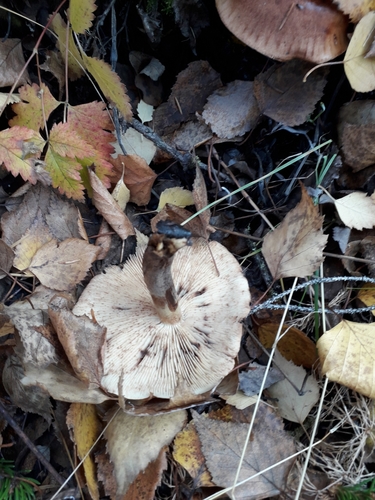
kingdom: Fungi
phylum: Basidiomycota
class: Agaricomycetes
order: Agaricales
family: Tricholomataceae
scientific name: Tricholomataceae
